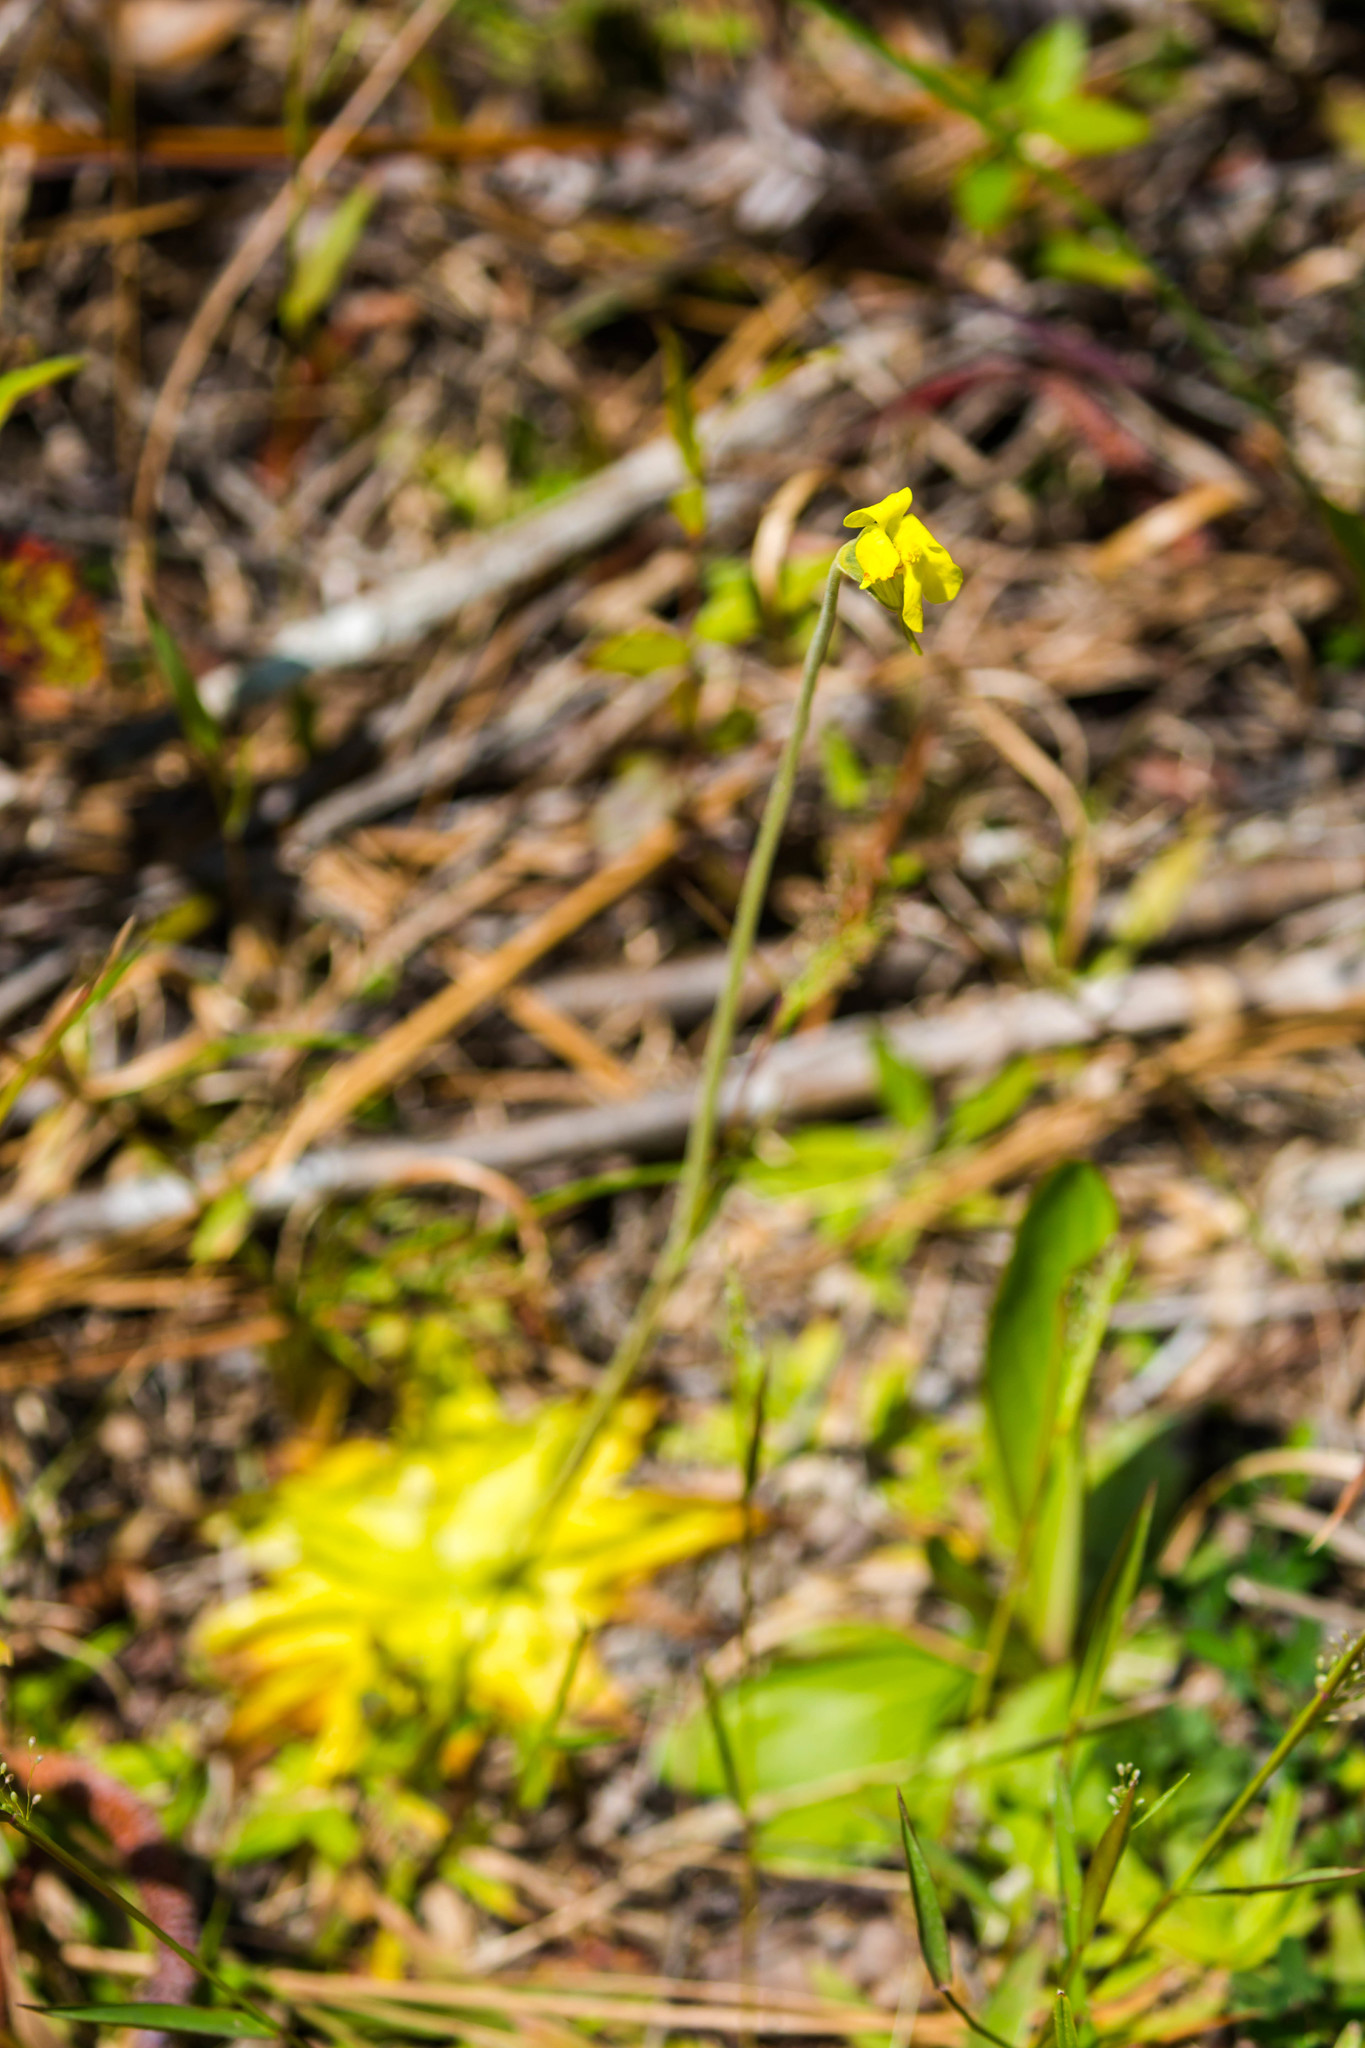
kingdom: Plantae
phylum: Tracheophyta
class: Magnoliopsida
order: Lamiales
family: Lentibulariaceae
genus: Pinguicula
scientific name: Pinguicula lutea
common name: Yellow butterwort
